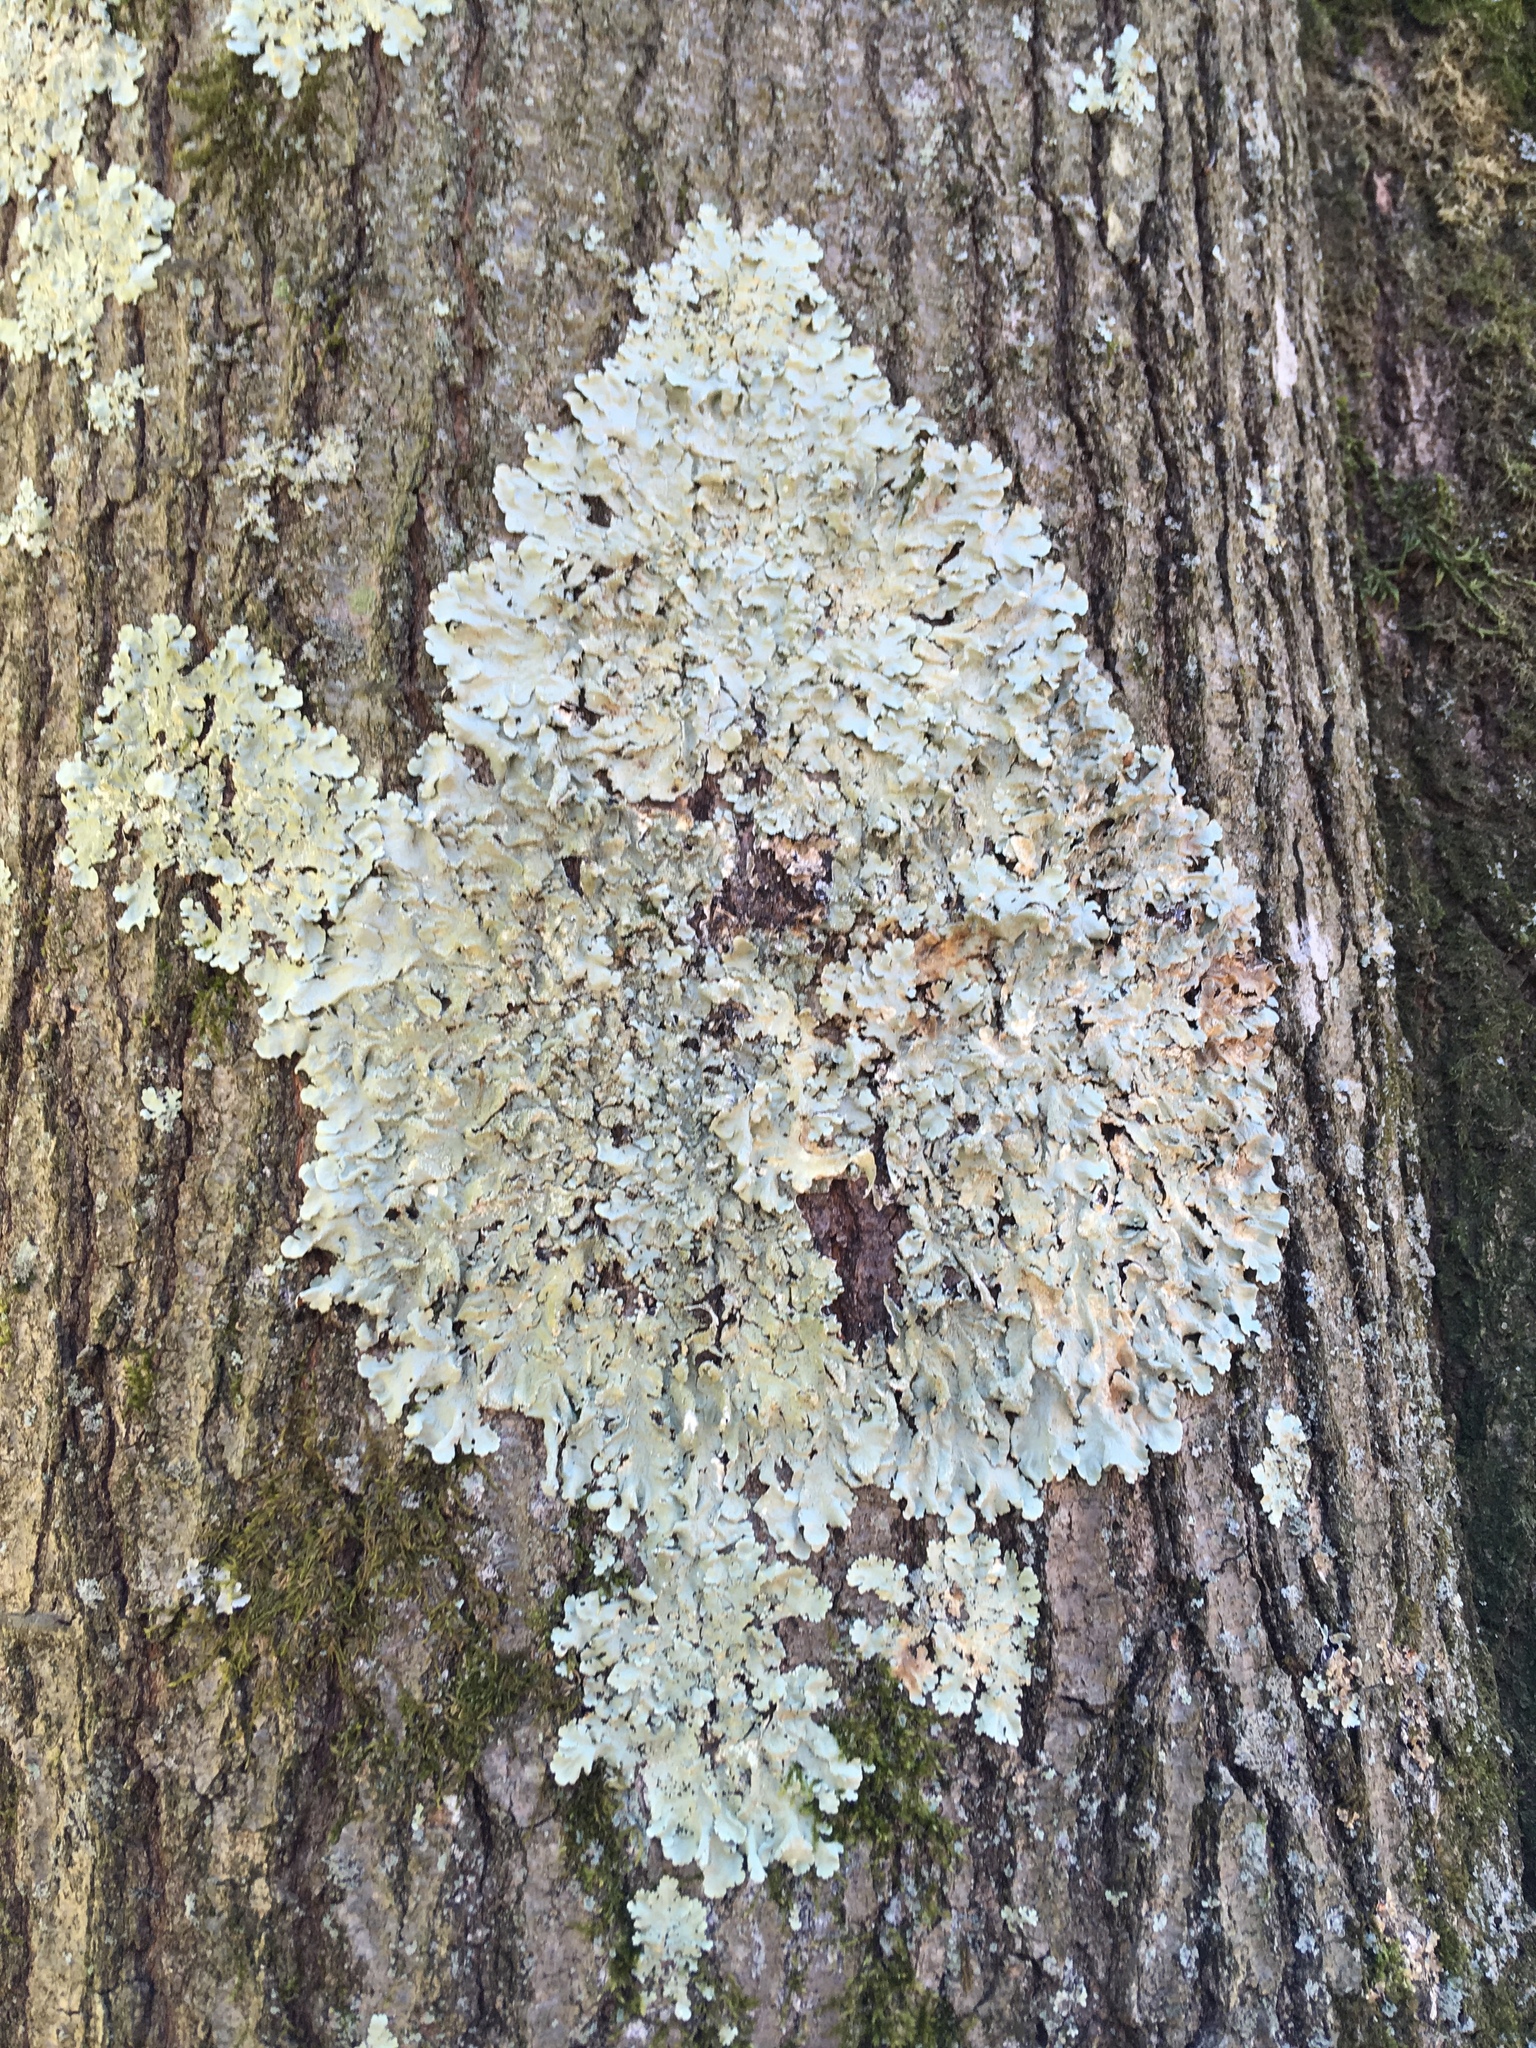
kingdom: Fungi
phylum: Ascomycota
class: Lecanoromycetes
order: Lecanorales
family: Parmeliaceae
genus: Flavoparmelia
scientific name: Flavoparmelia caperata
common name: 40-mile per hour lichen
